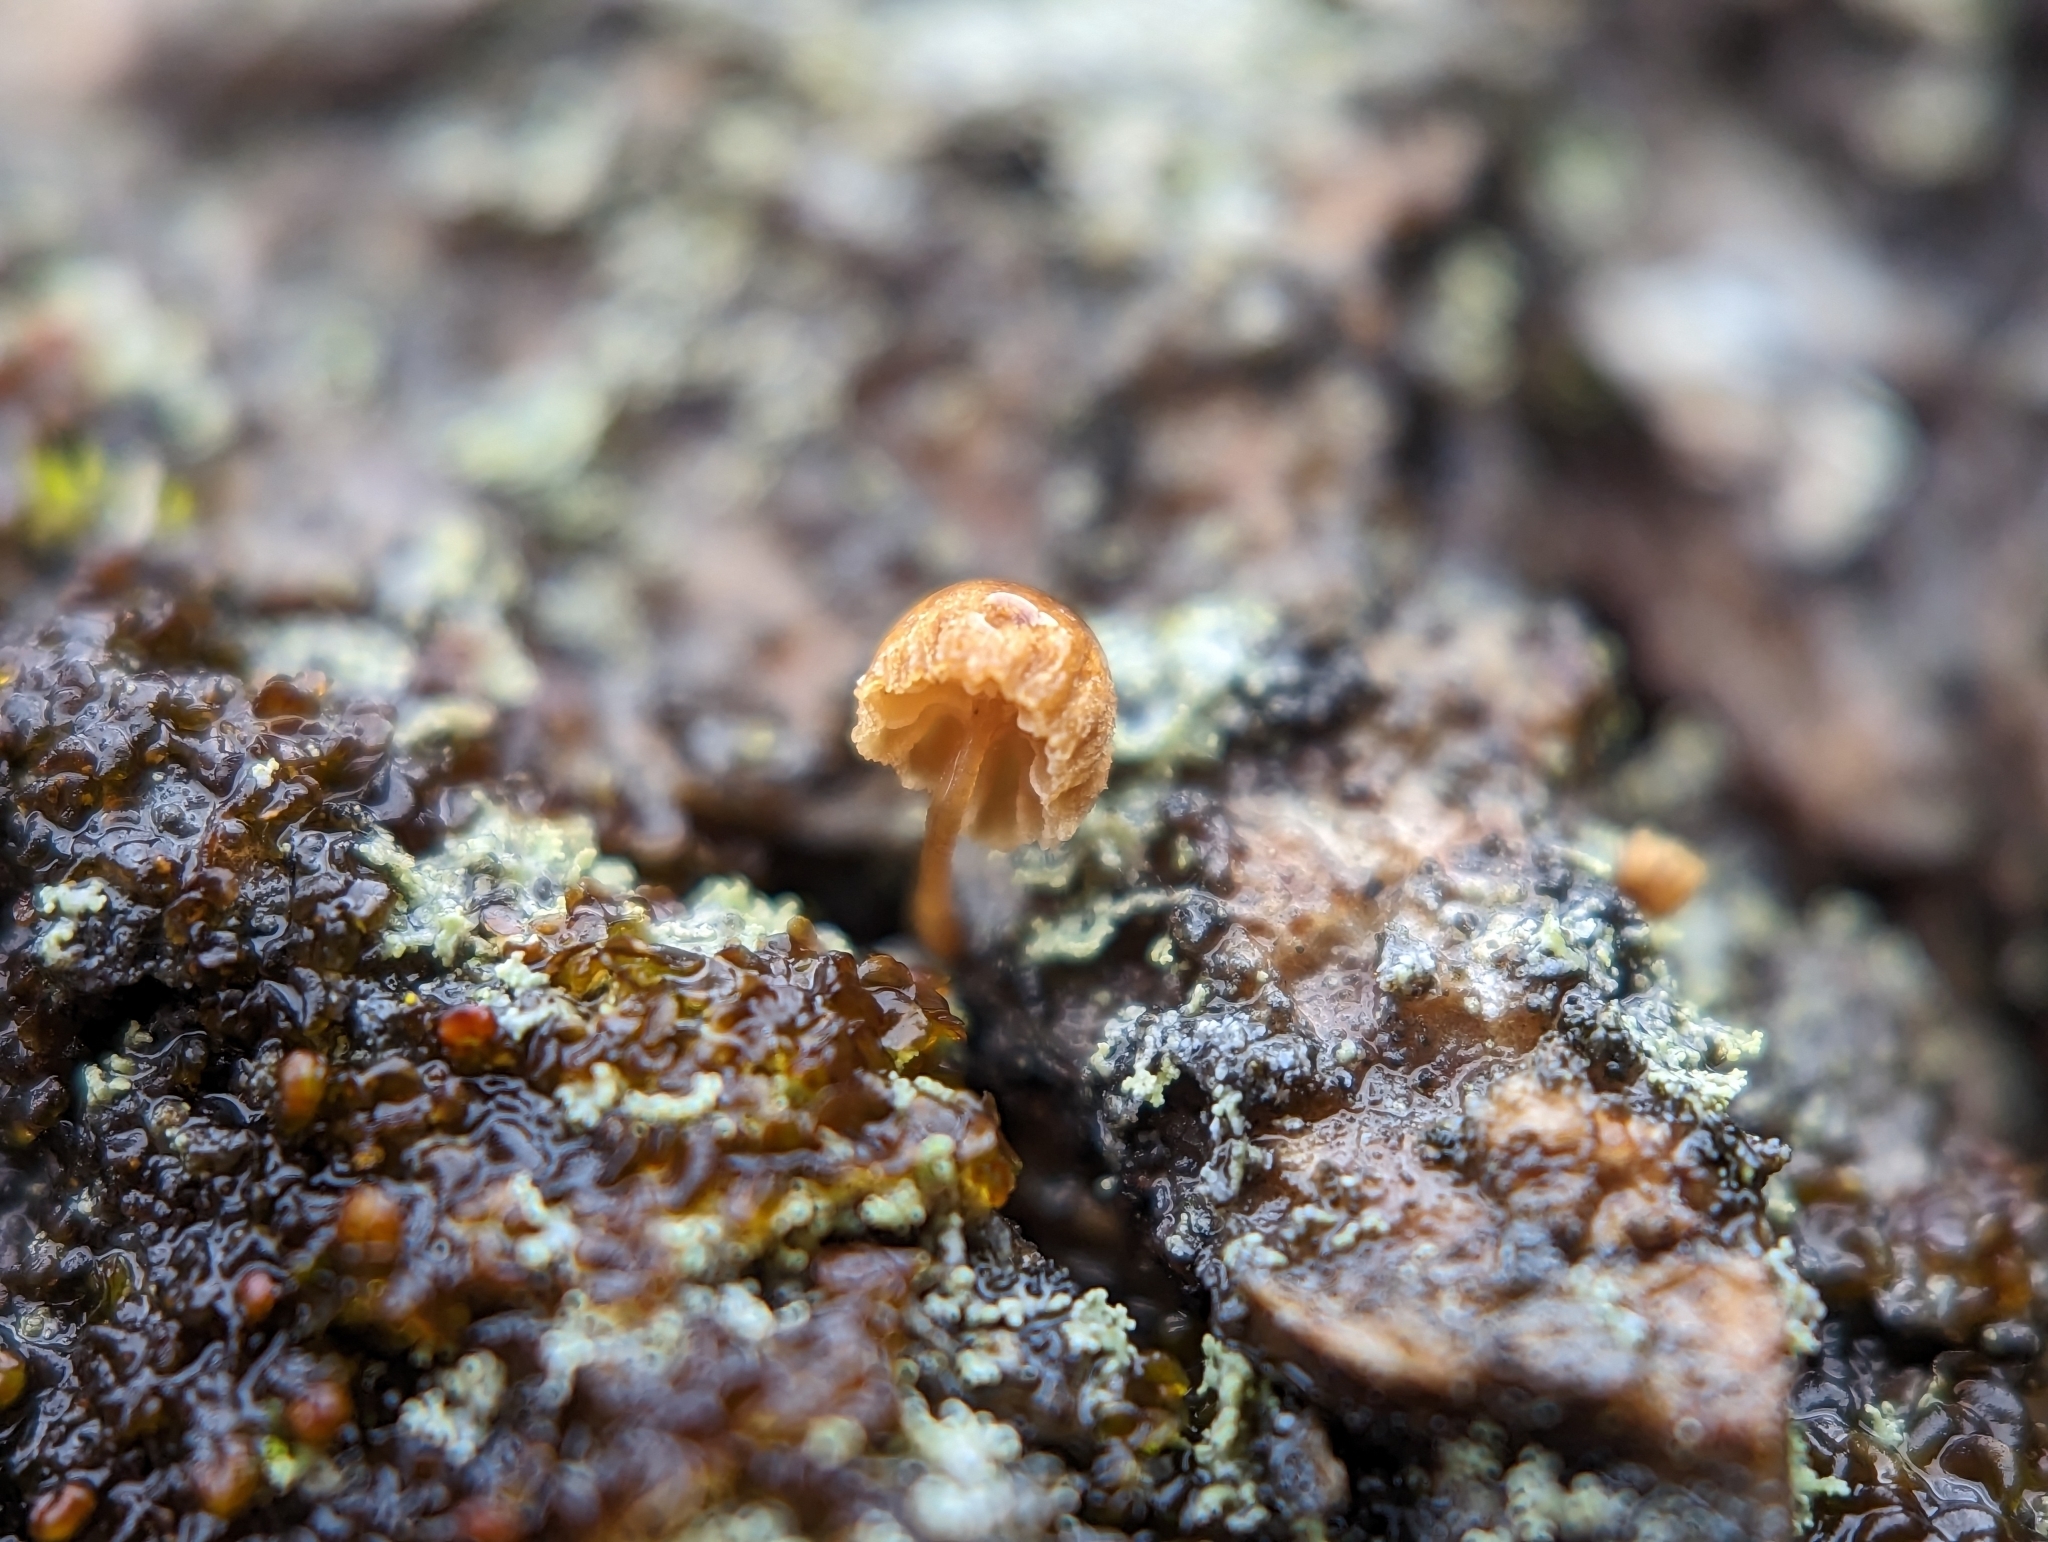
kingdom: Fungi
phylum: Basidiomycota
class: Agaricomycetes
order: Agaricales
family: Mycenaceae
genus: Mycena
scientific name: Mycena corticola
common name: Bark mycena
